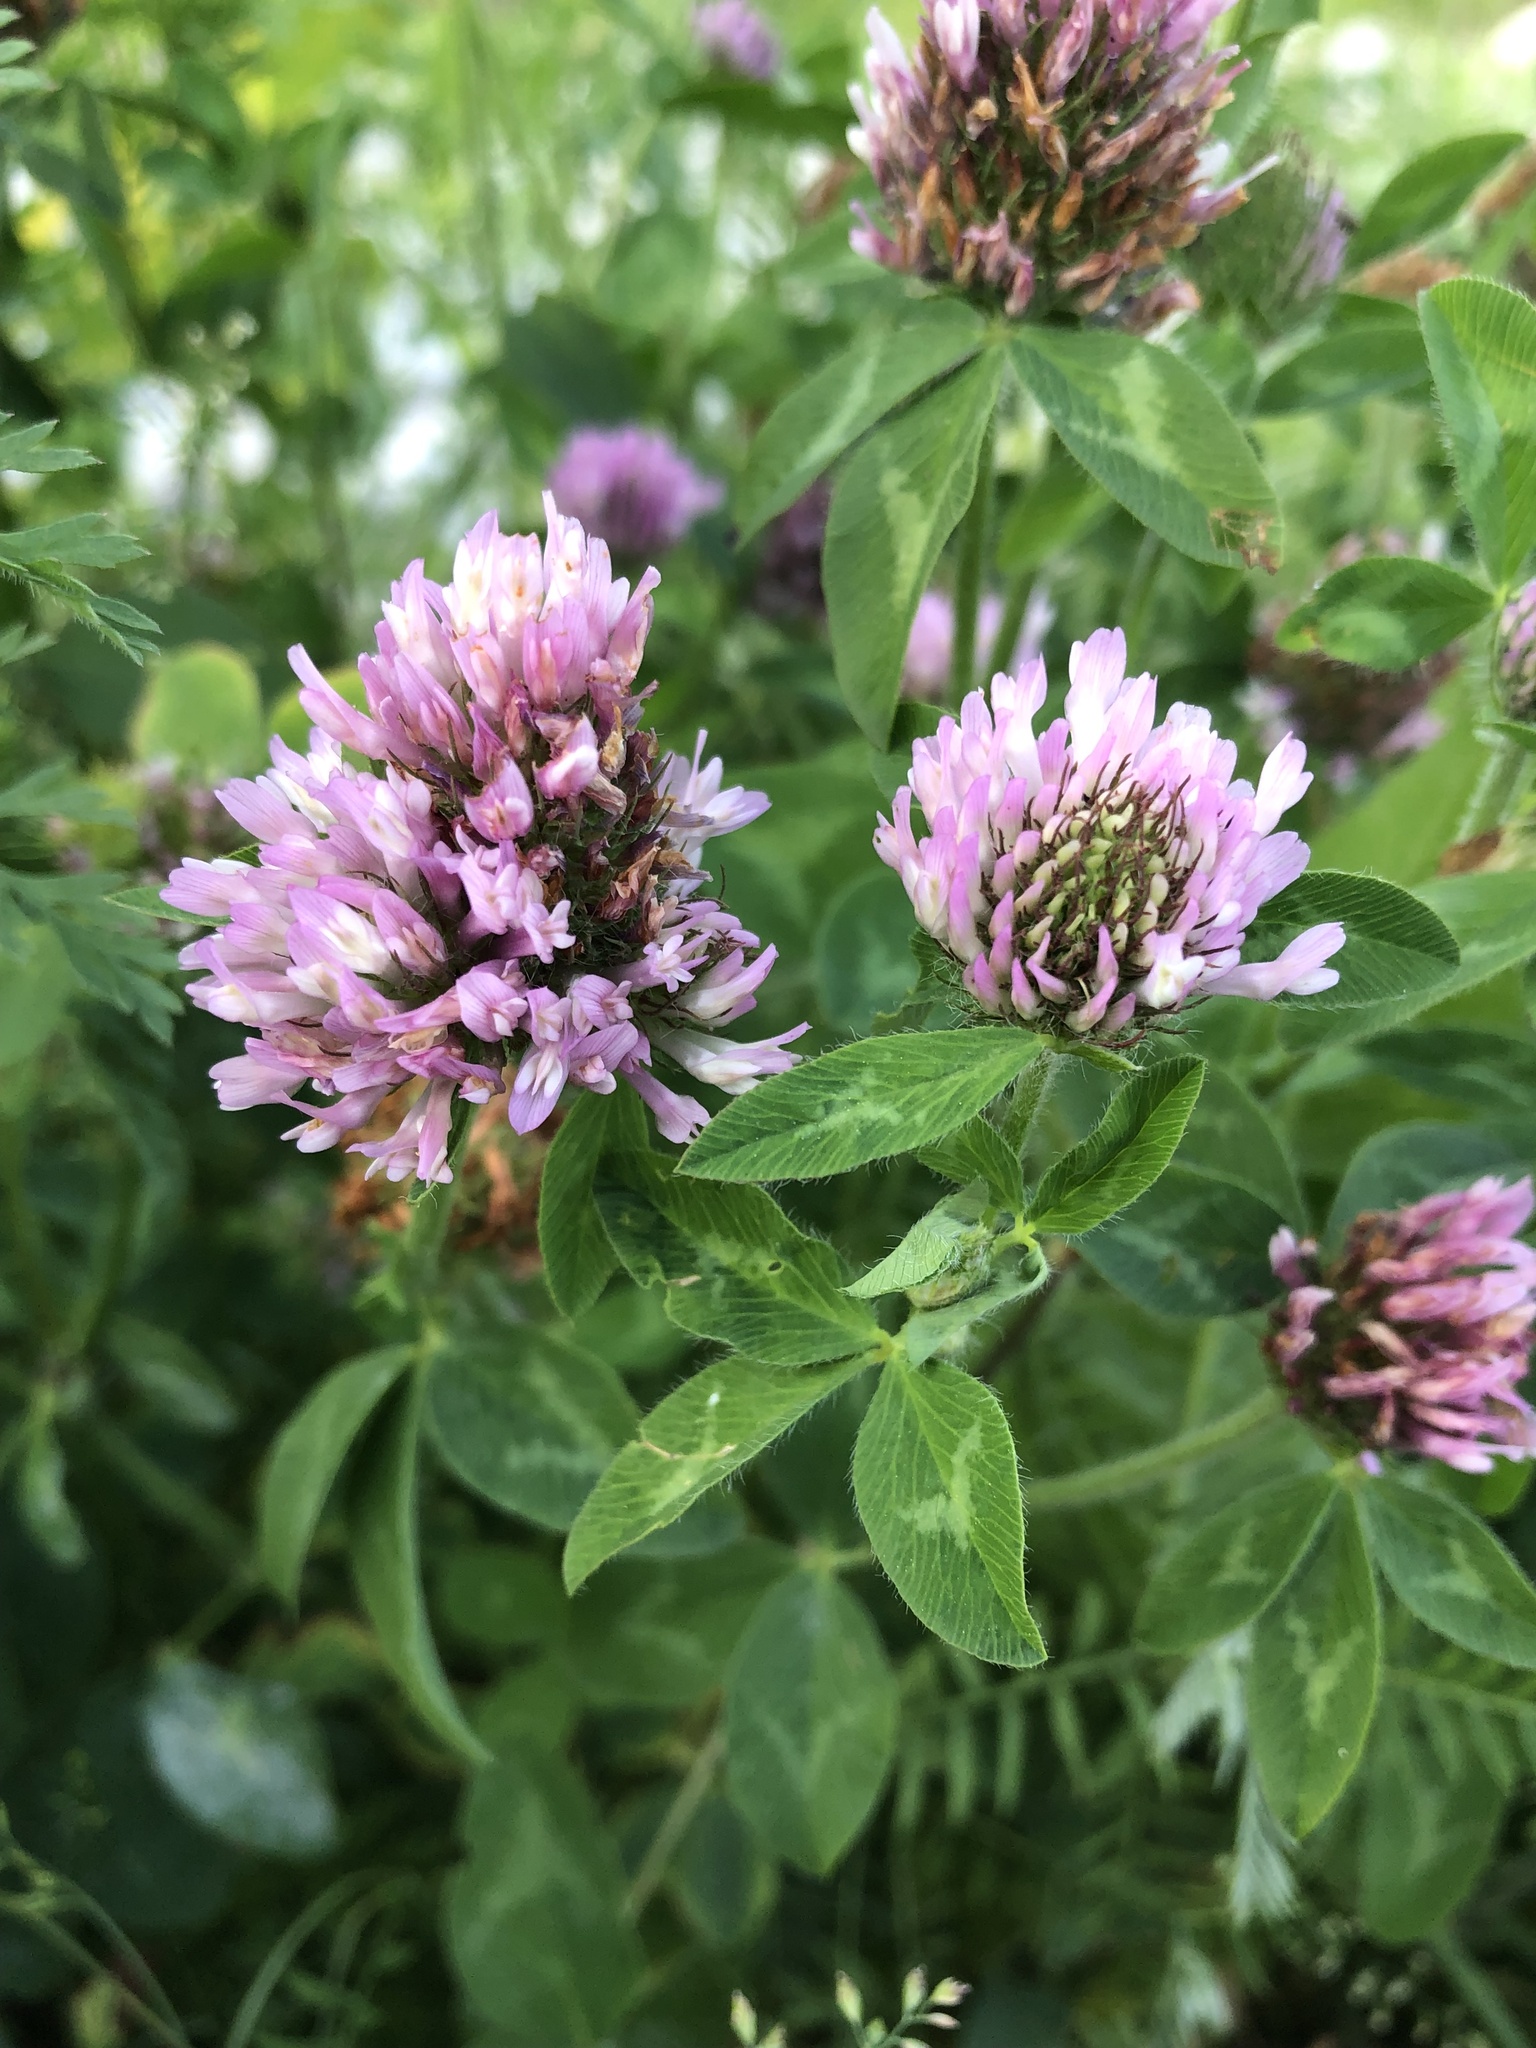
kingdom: Plantae
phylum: Tracheophyta
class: Magnoliopsida
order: Fabales
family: Fabaceae
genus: Trifolium
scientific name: Trifolium pratense
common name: Red clover
